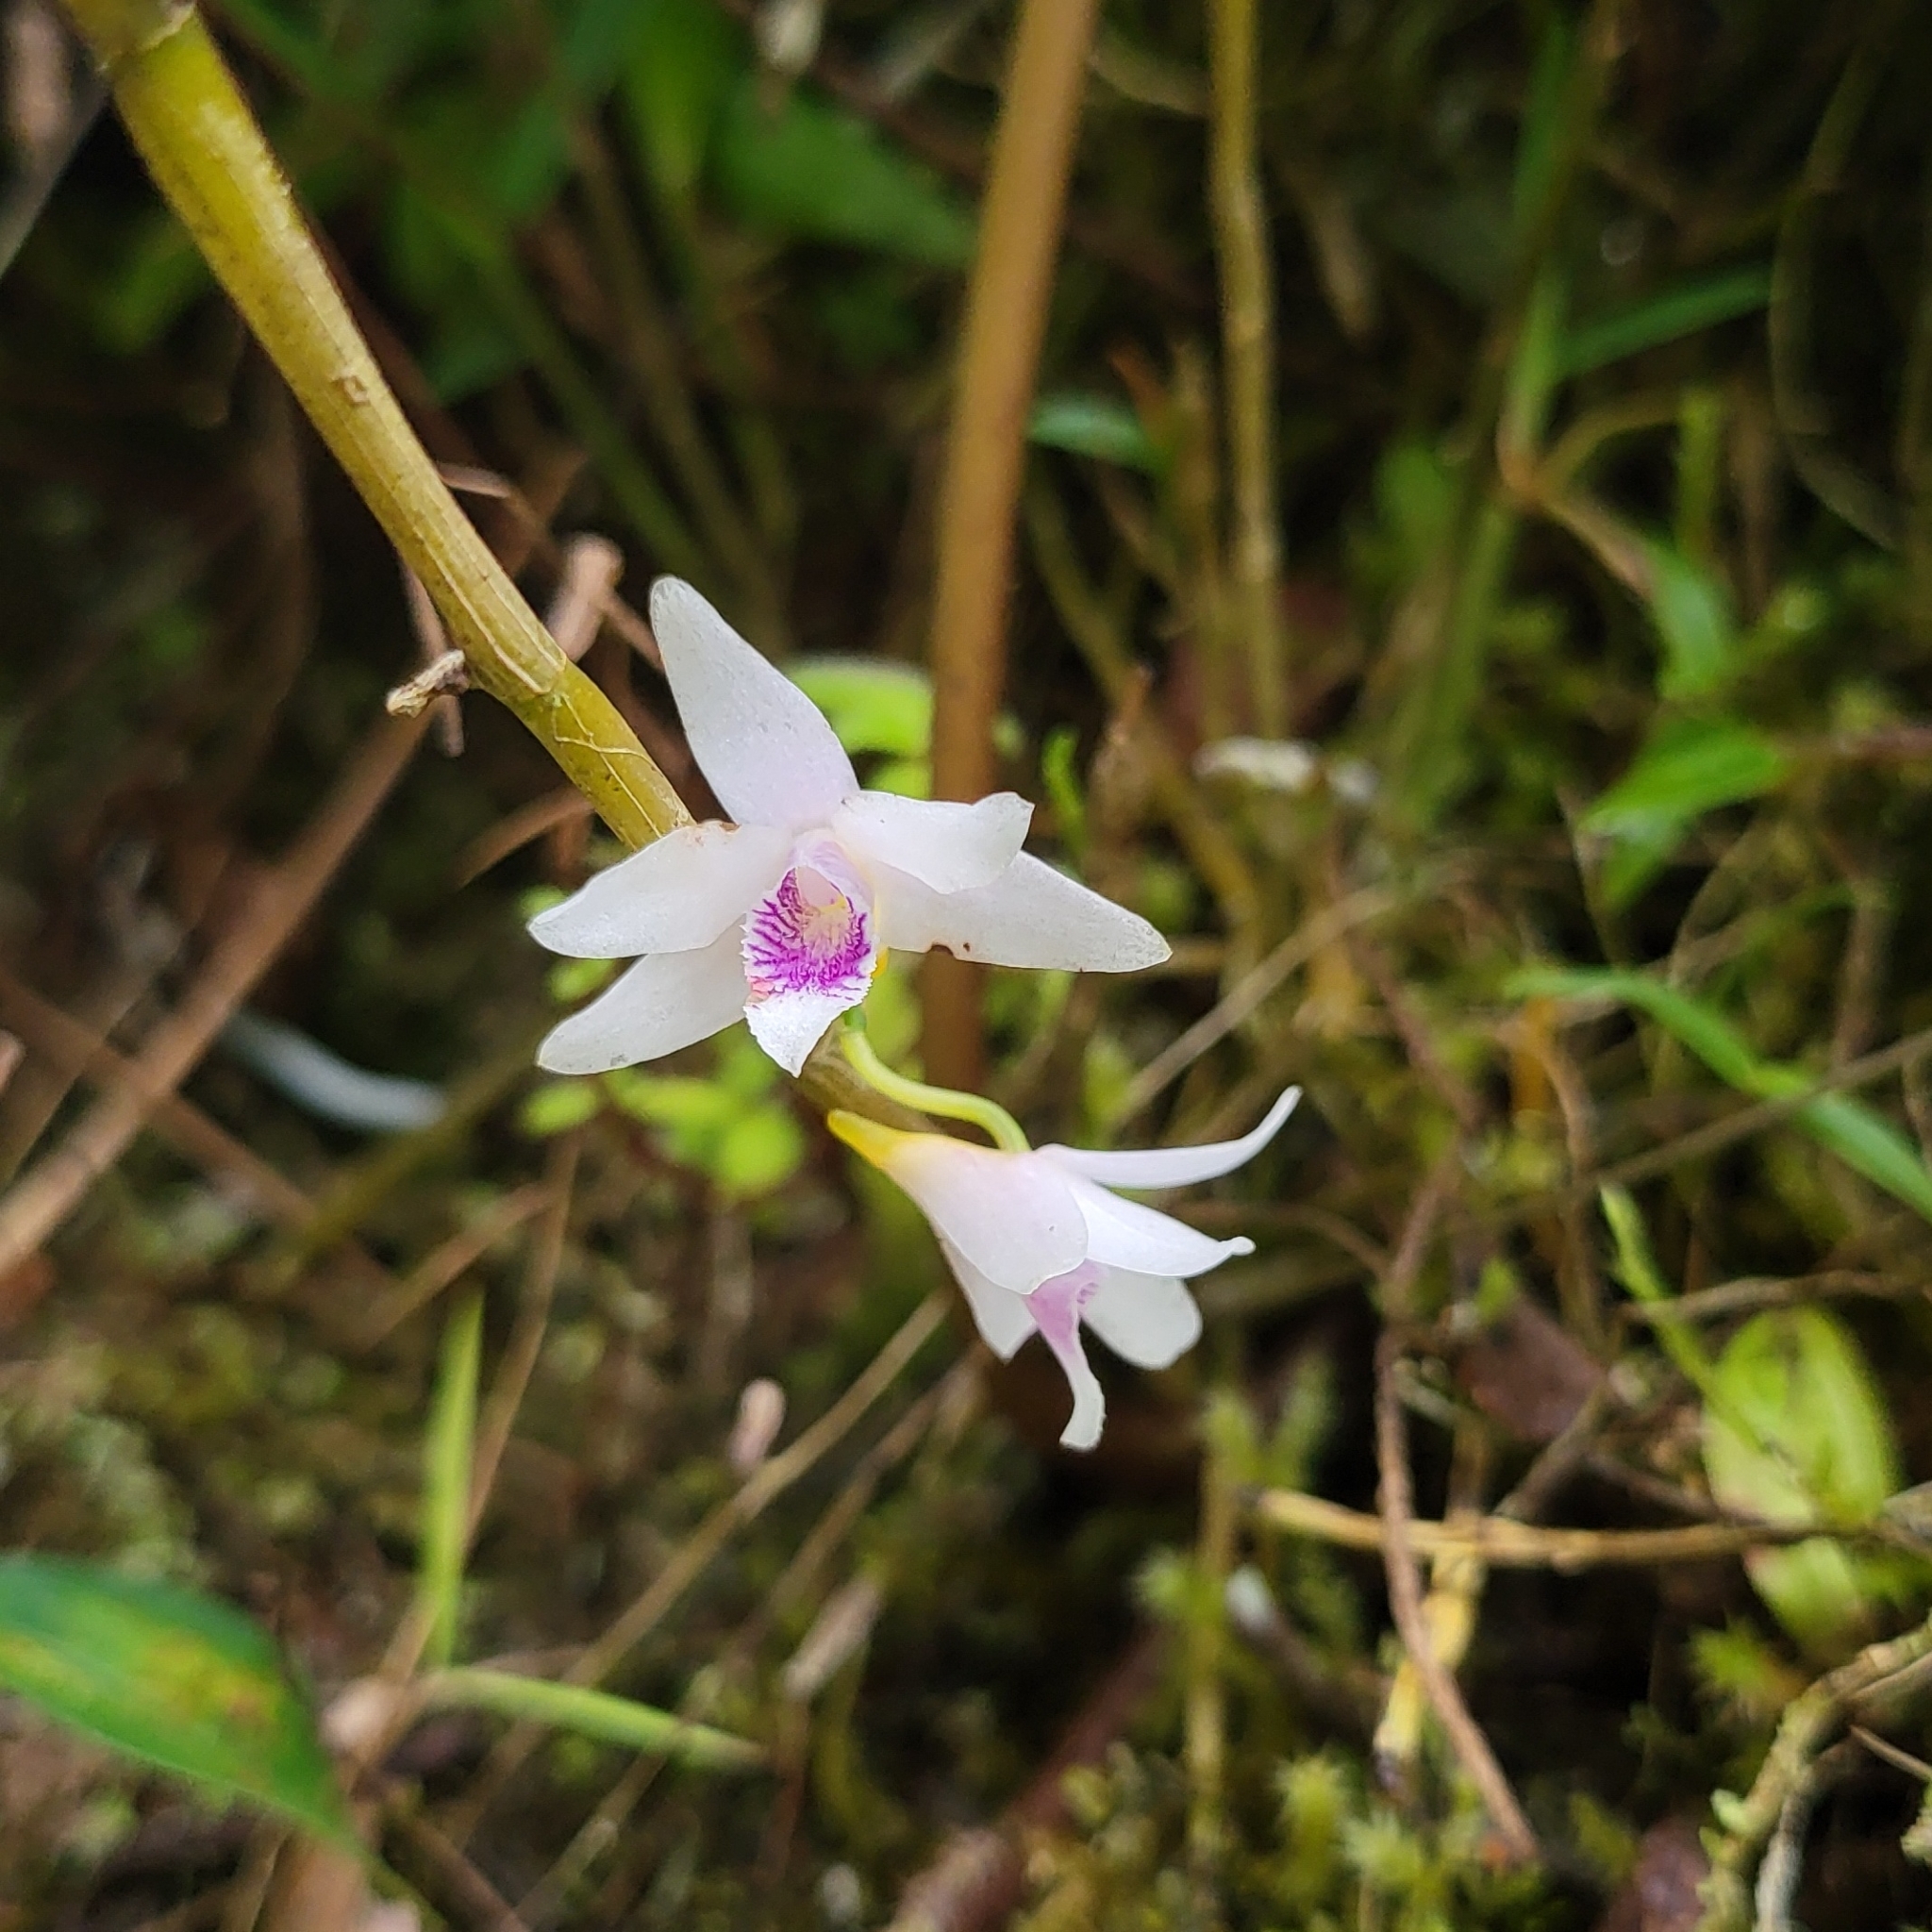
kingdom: Plantae
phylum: Tracheophyta
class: Liliopsida
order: Asparagales
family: Orchidaceae
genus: Dendrobium
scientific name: Dendrobium metrium
